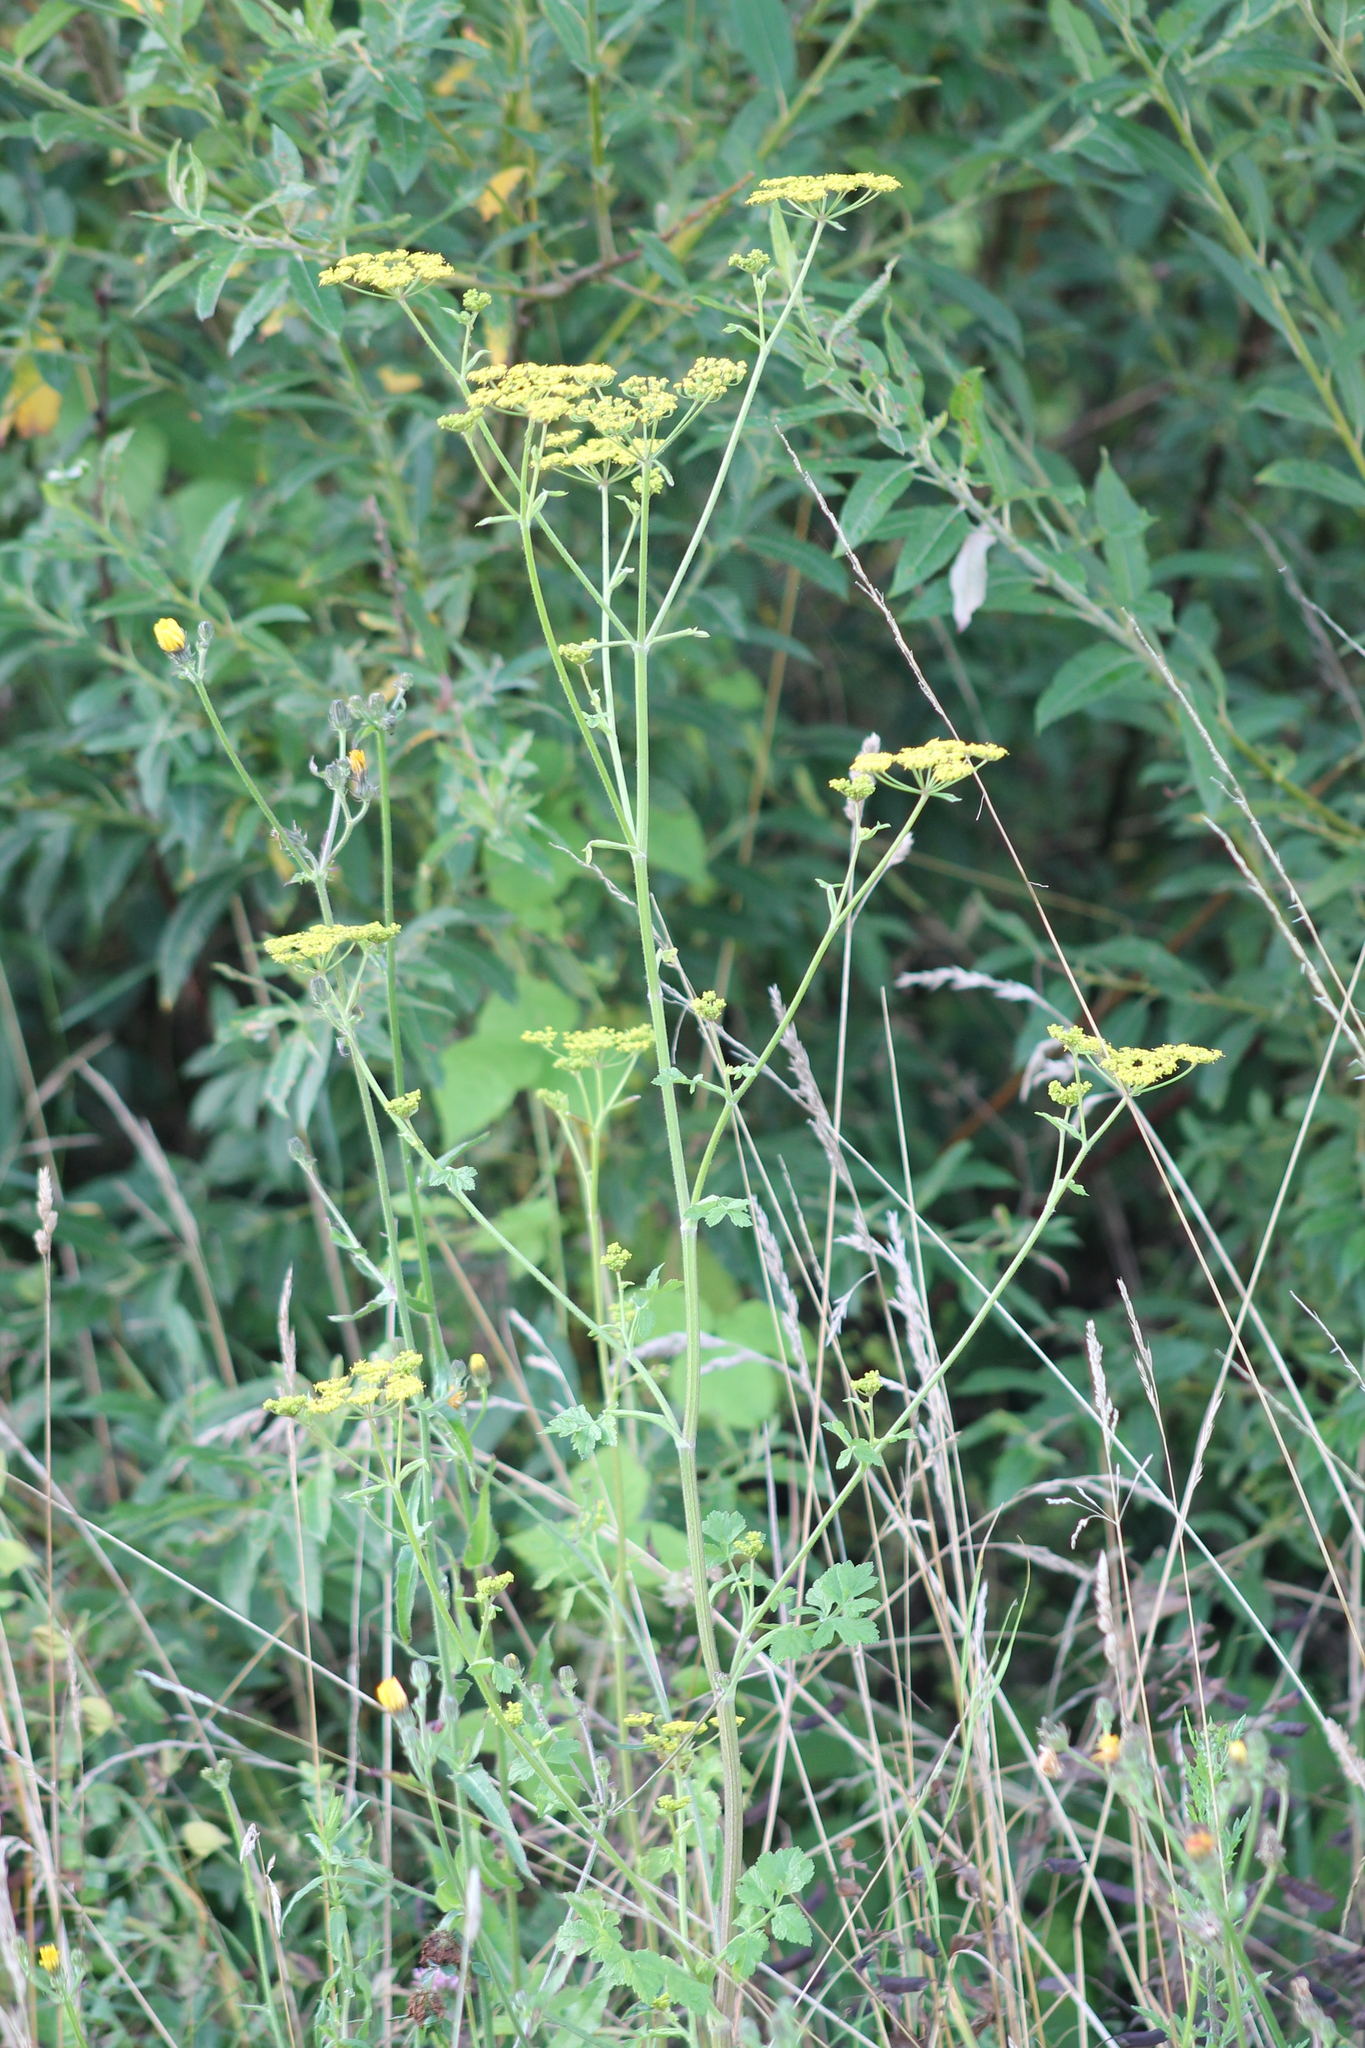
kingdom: Plantae
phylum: Tracheophyta
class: Magnoliopsida
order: Apiales
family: Apiaceae
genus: Pastinaca
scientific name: Pastinaca sativa
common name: Wild parsnip
